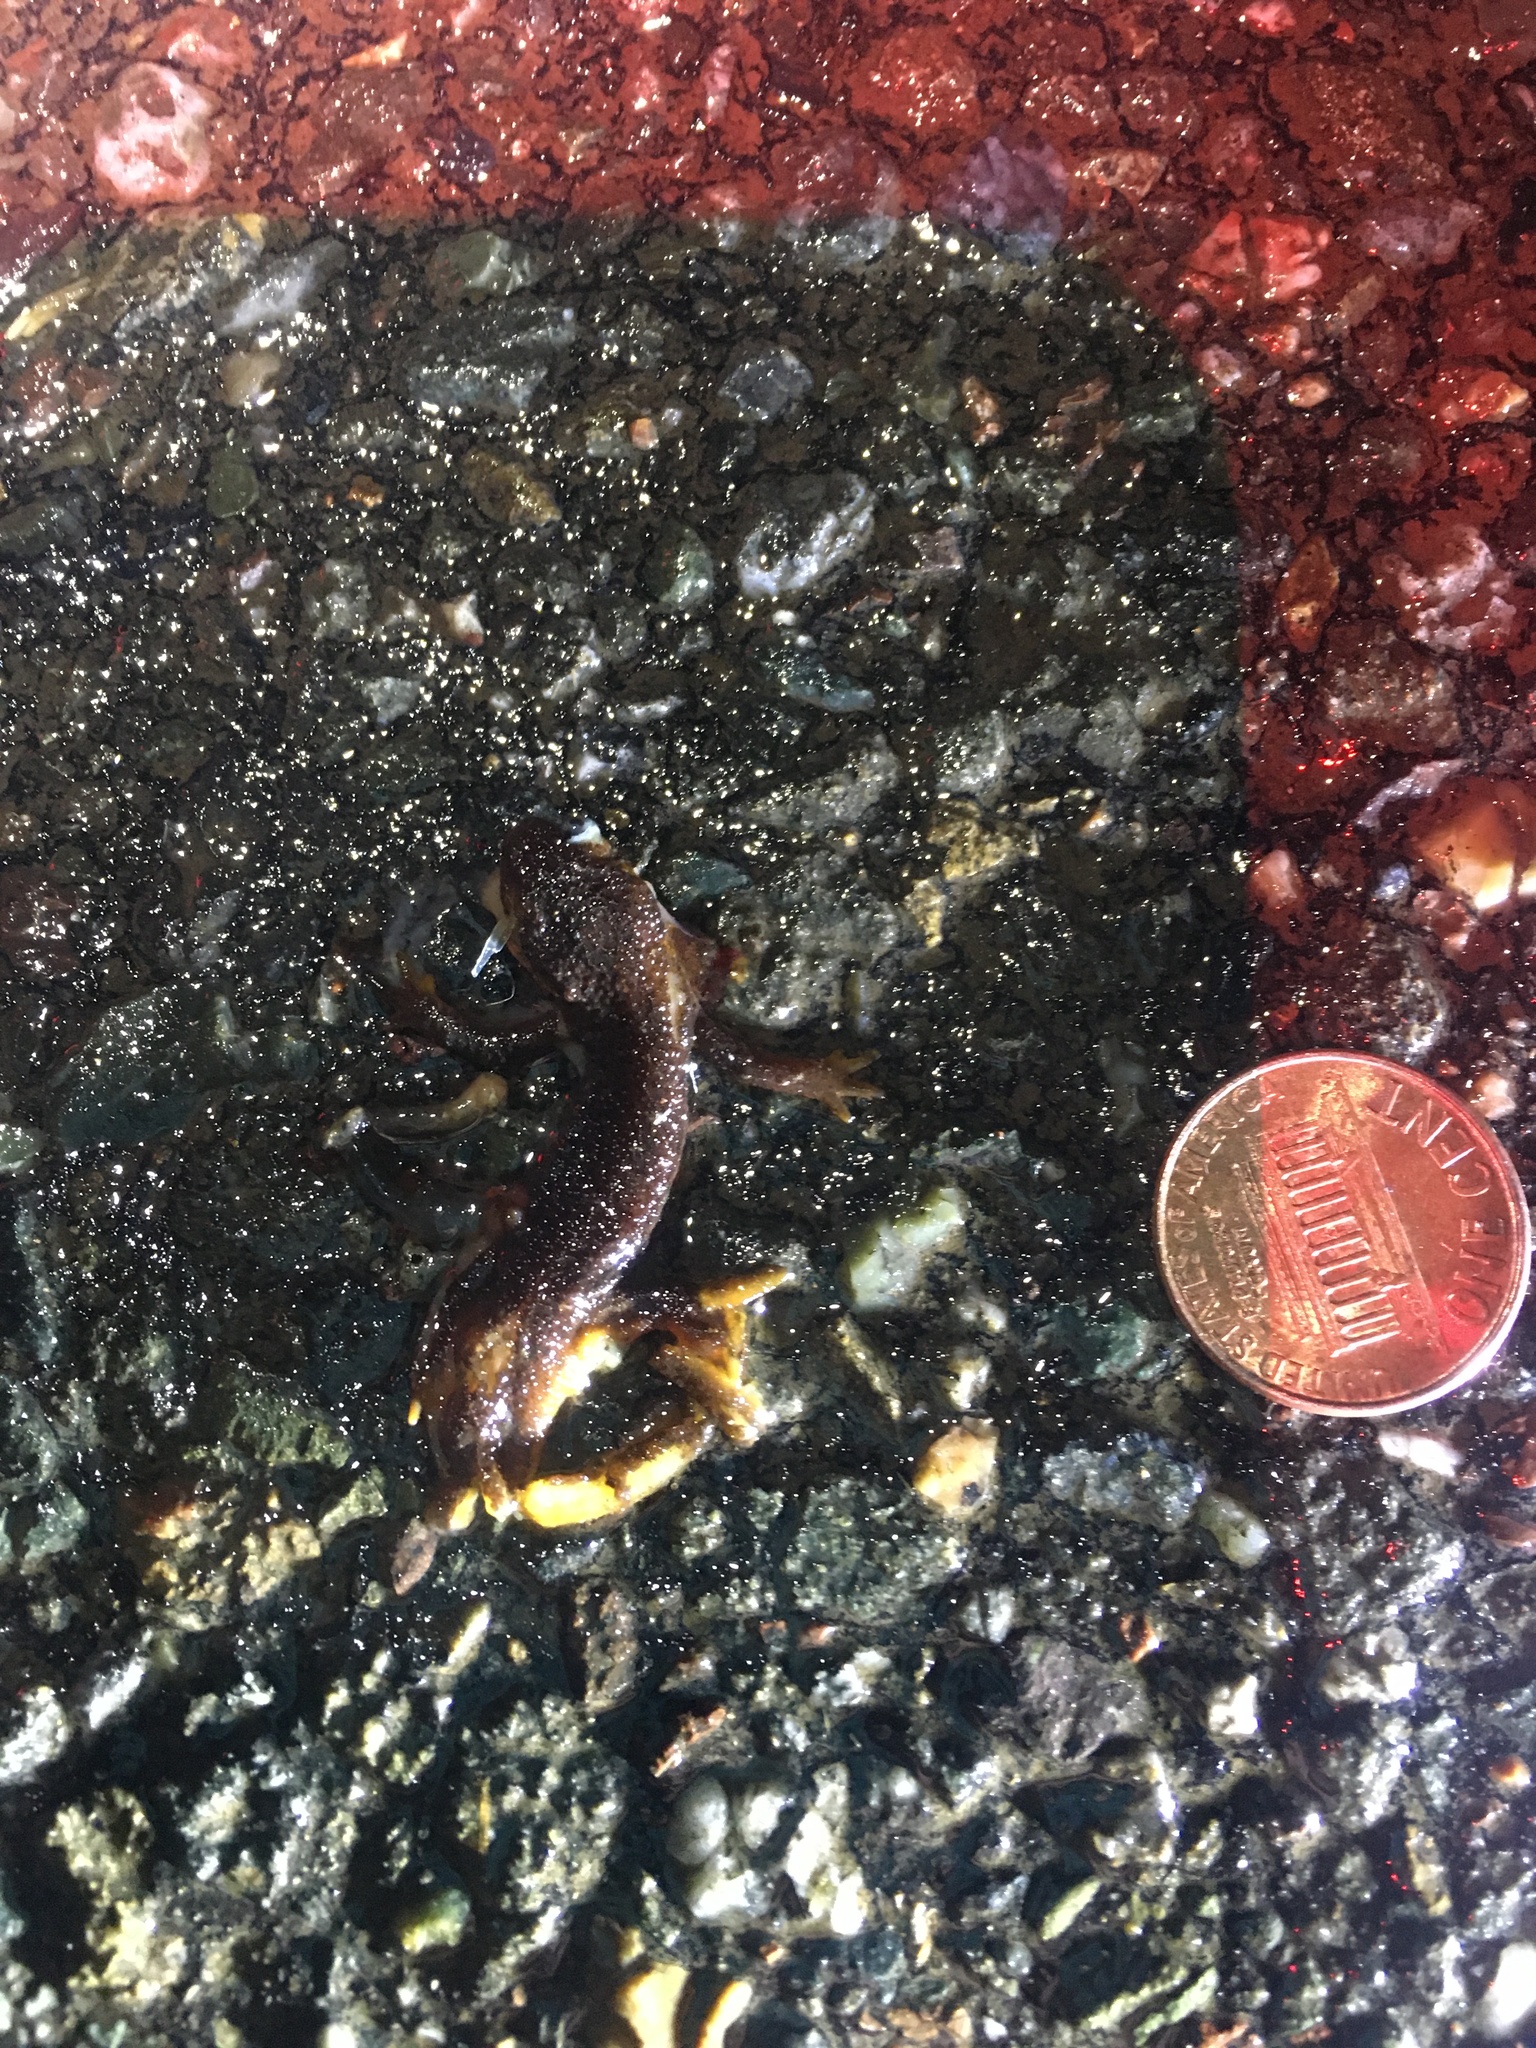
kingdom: Animalia
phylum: Chordata
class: Amphibia
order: Caudata
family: Salamandridae
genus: Taricha
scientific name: Taricha
